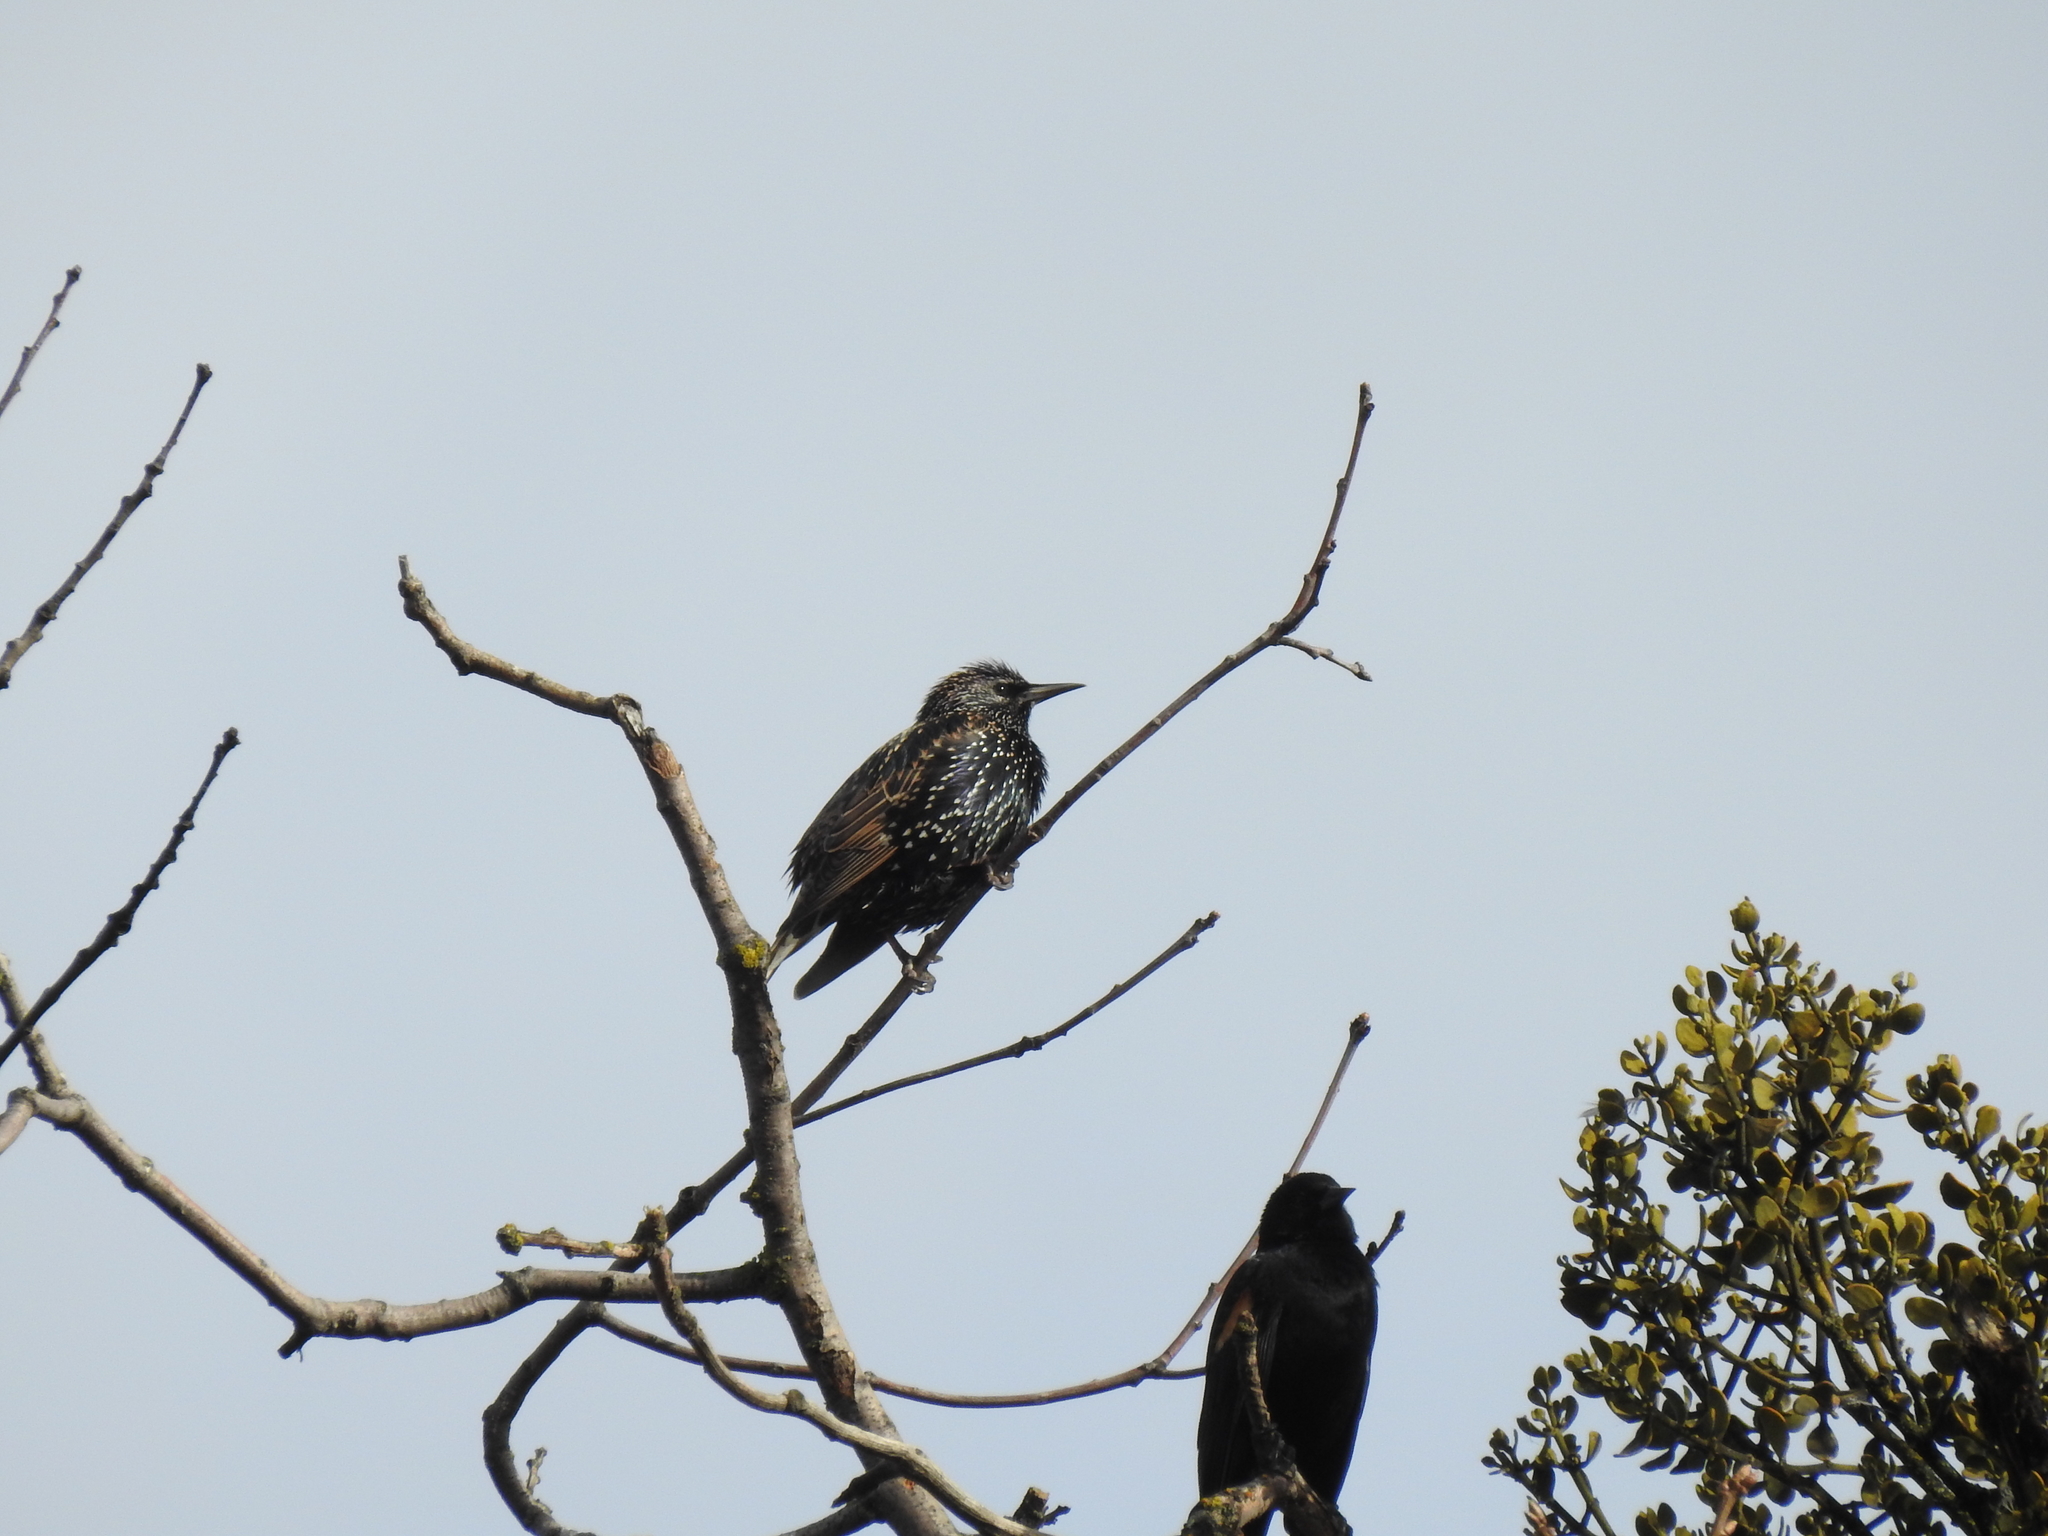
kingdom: Animalia
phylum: Chordata
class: Aves
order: Passeriformes
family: Sturnidae
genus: Sturnus
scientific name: Sturnus vulgaris
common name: Common starling
